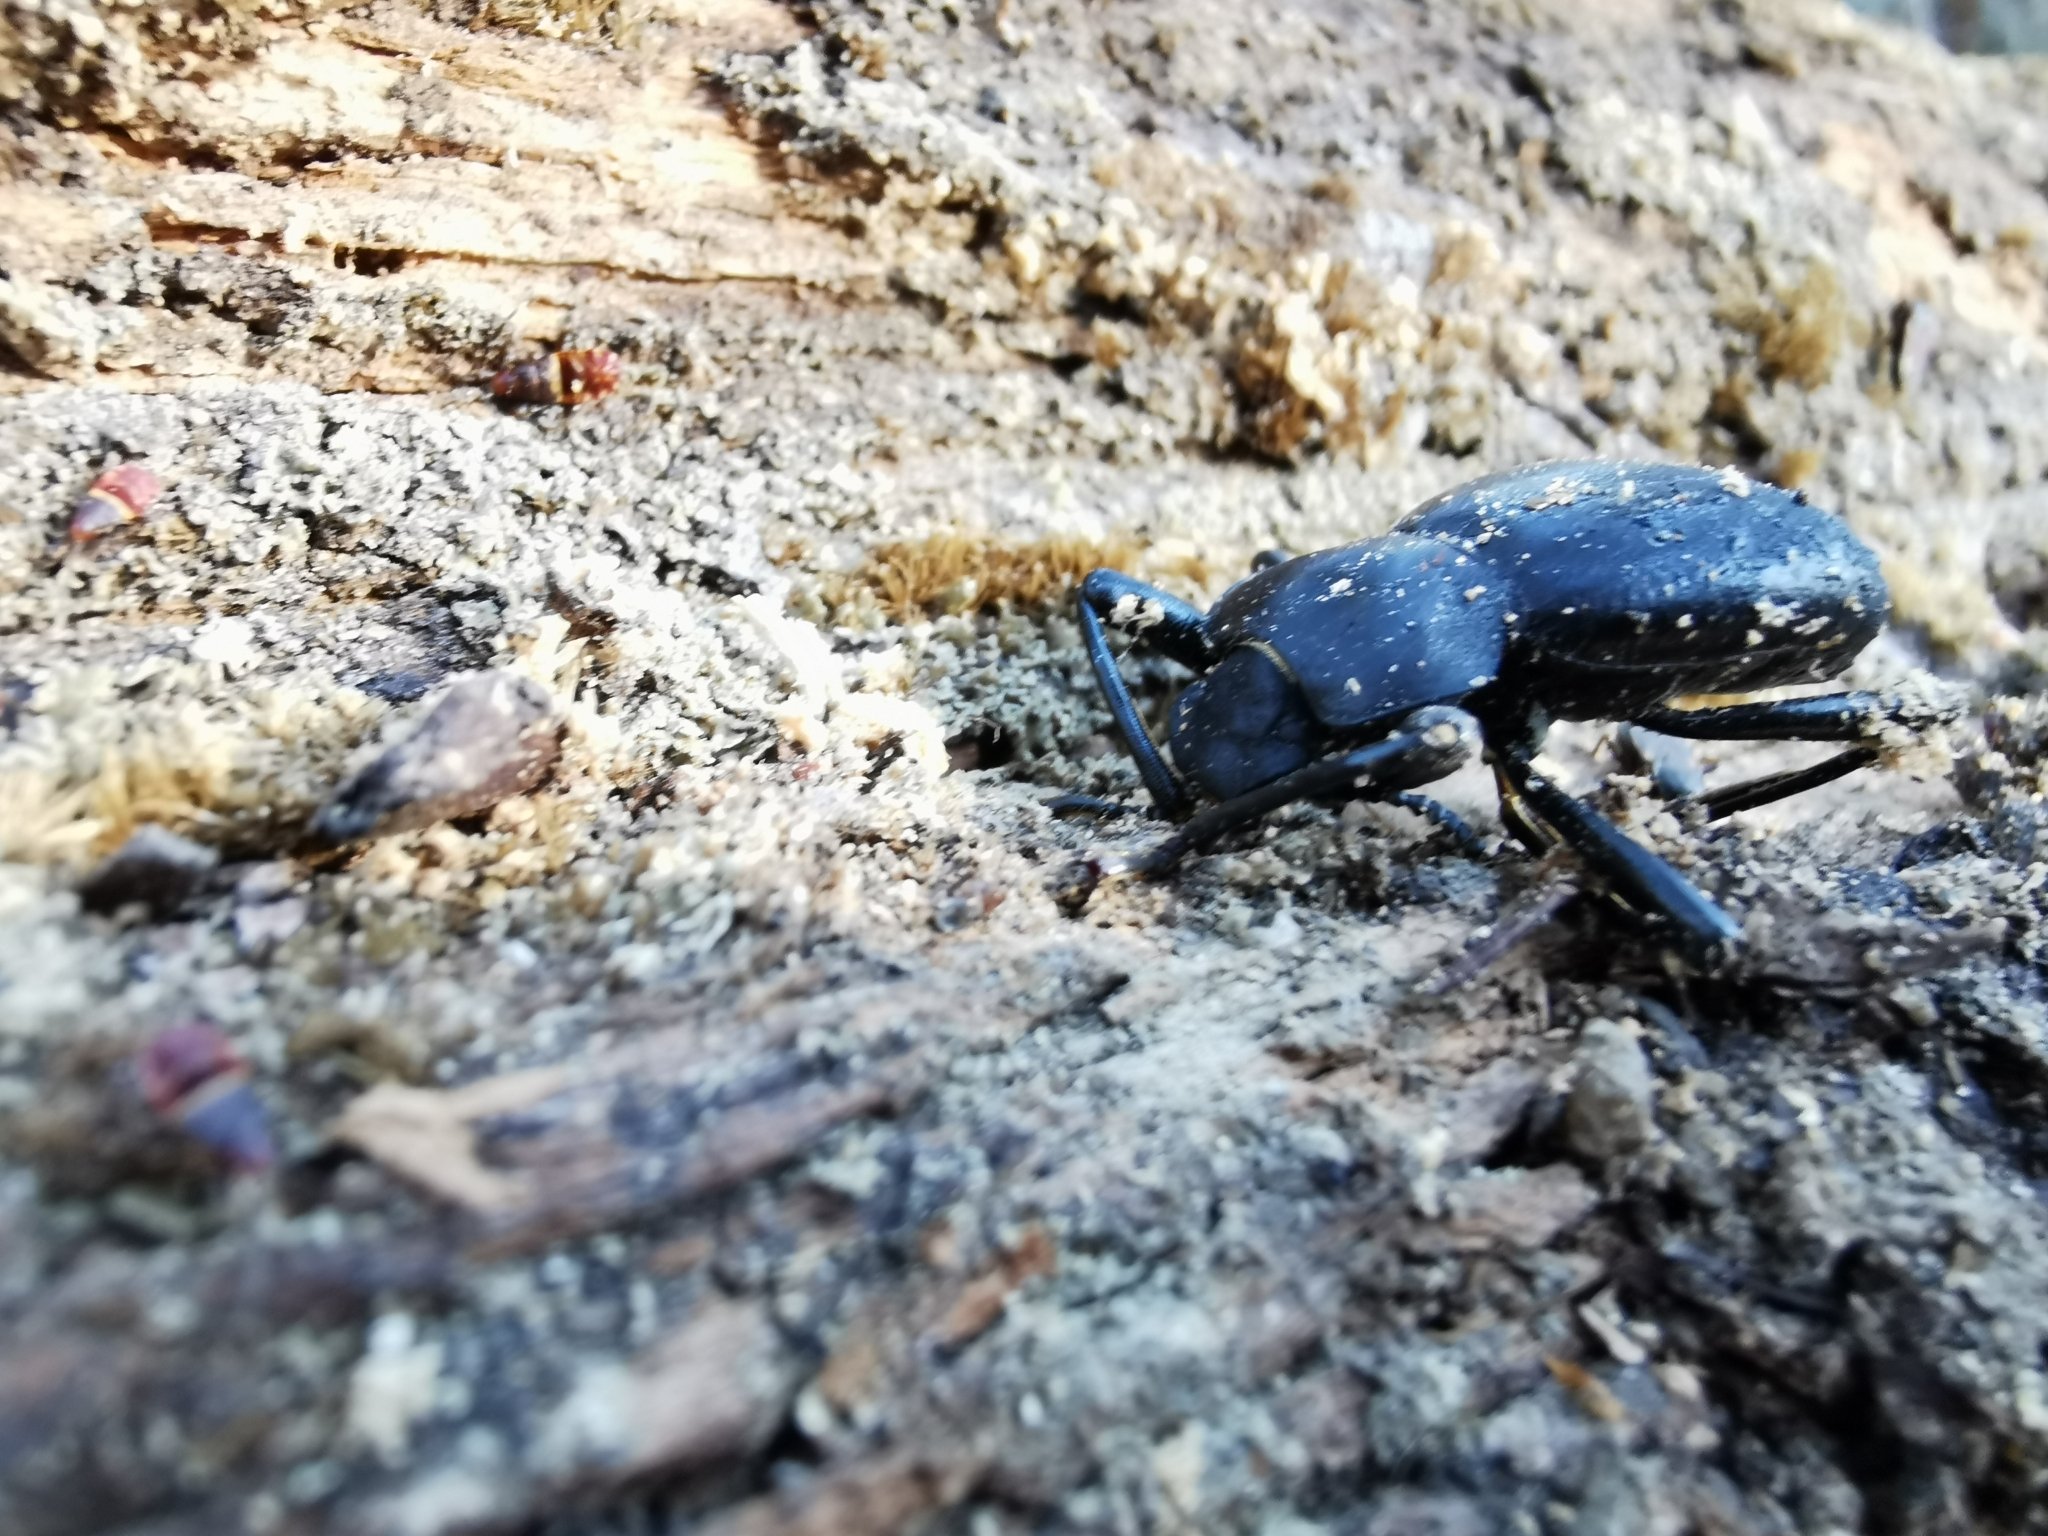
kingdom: Animalia
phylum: Arthropoda
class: Insecta
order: Coleoptera
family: Tenebrionidae
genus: Coelocnemis
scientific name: Coelocnemis dilaticollis
